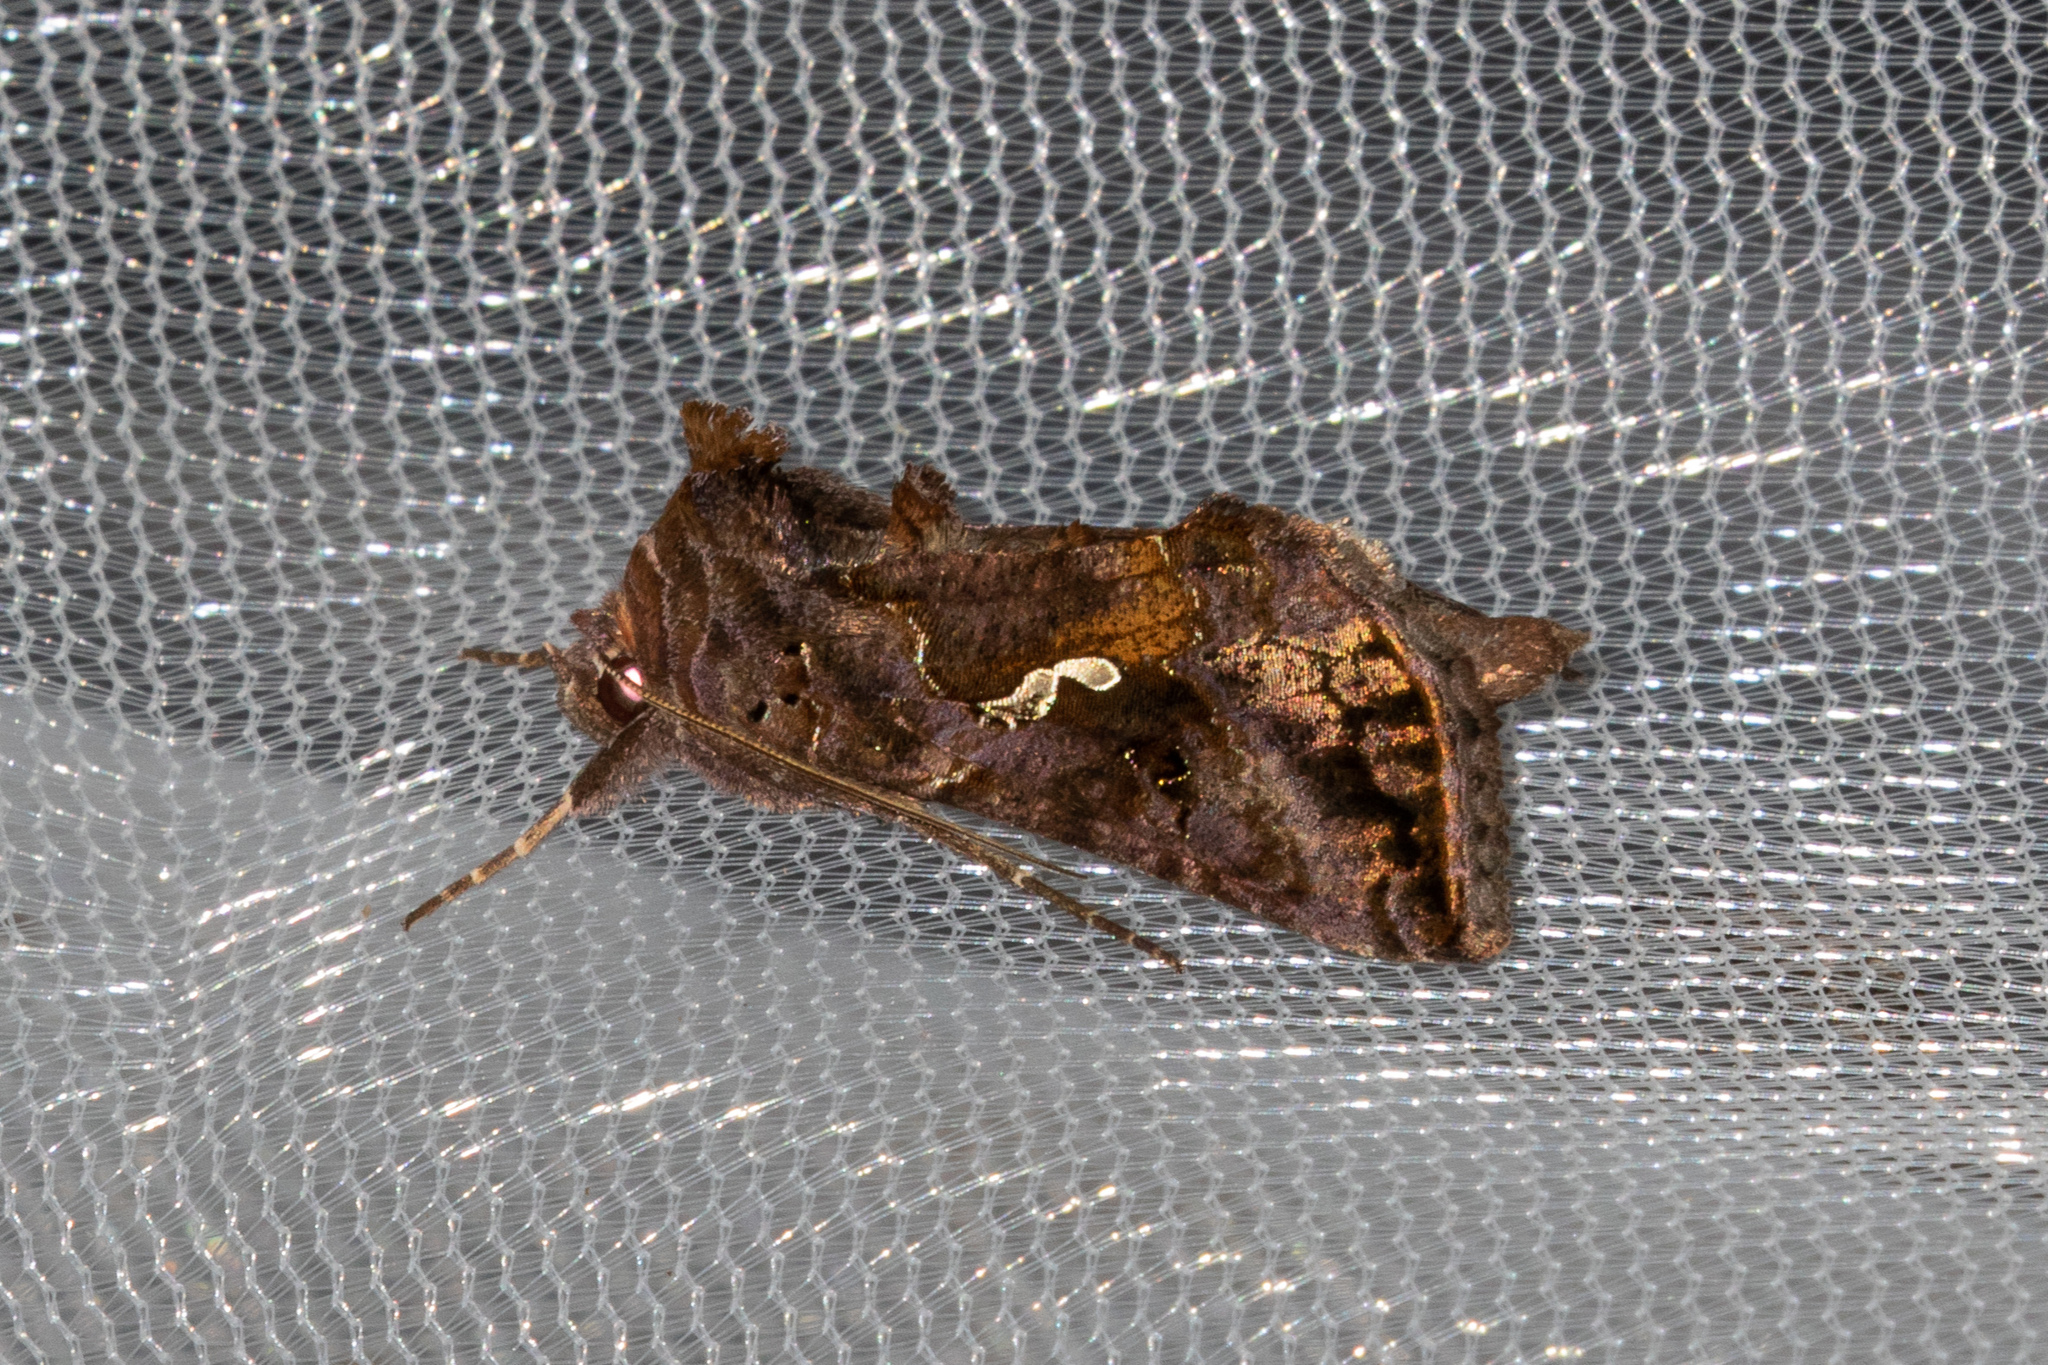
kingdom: Animalia
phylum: Arthropoda
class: Insecta
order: Lepidoptera
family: Noctuidae
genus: Autographa
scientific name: Autographa precationis
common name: Common looper moth
